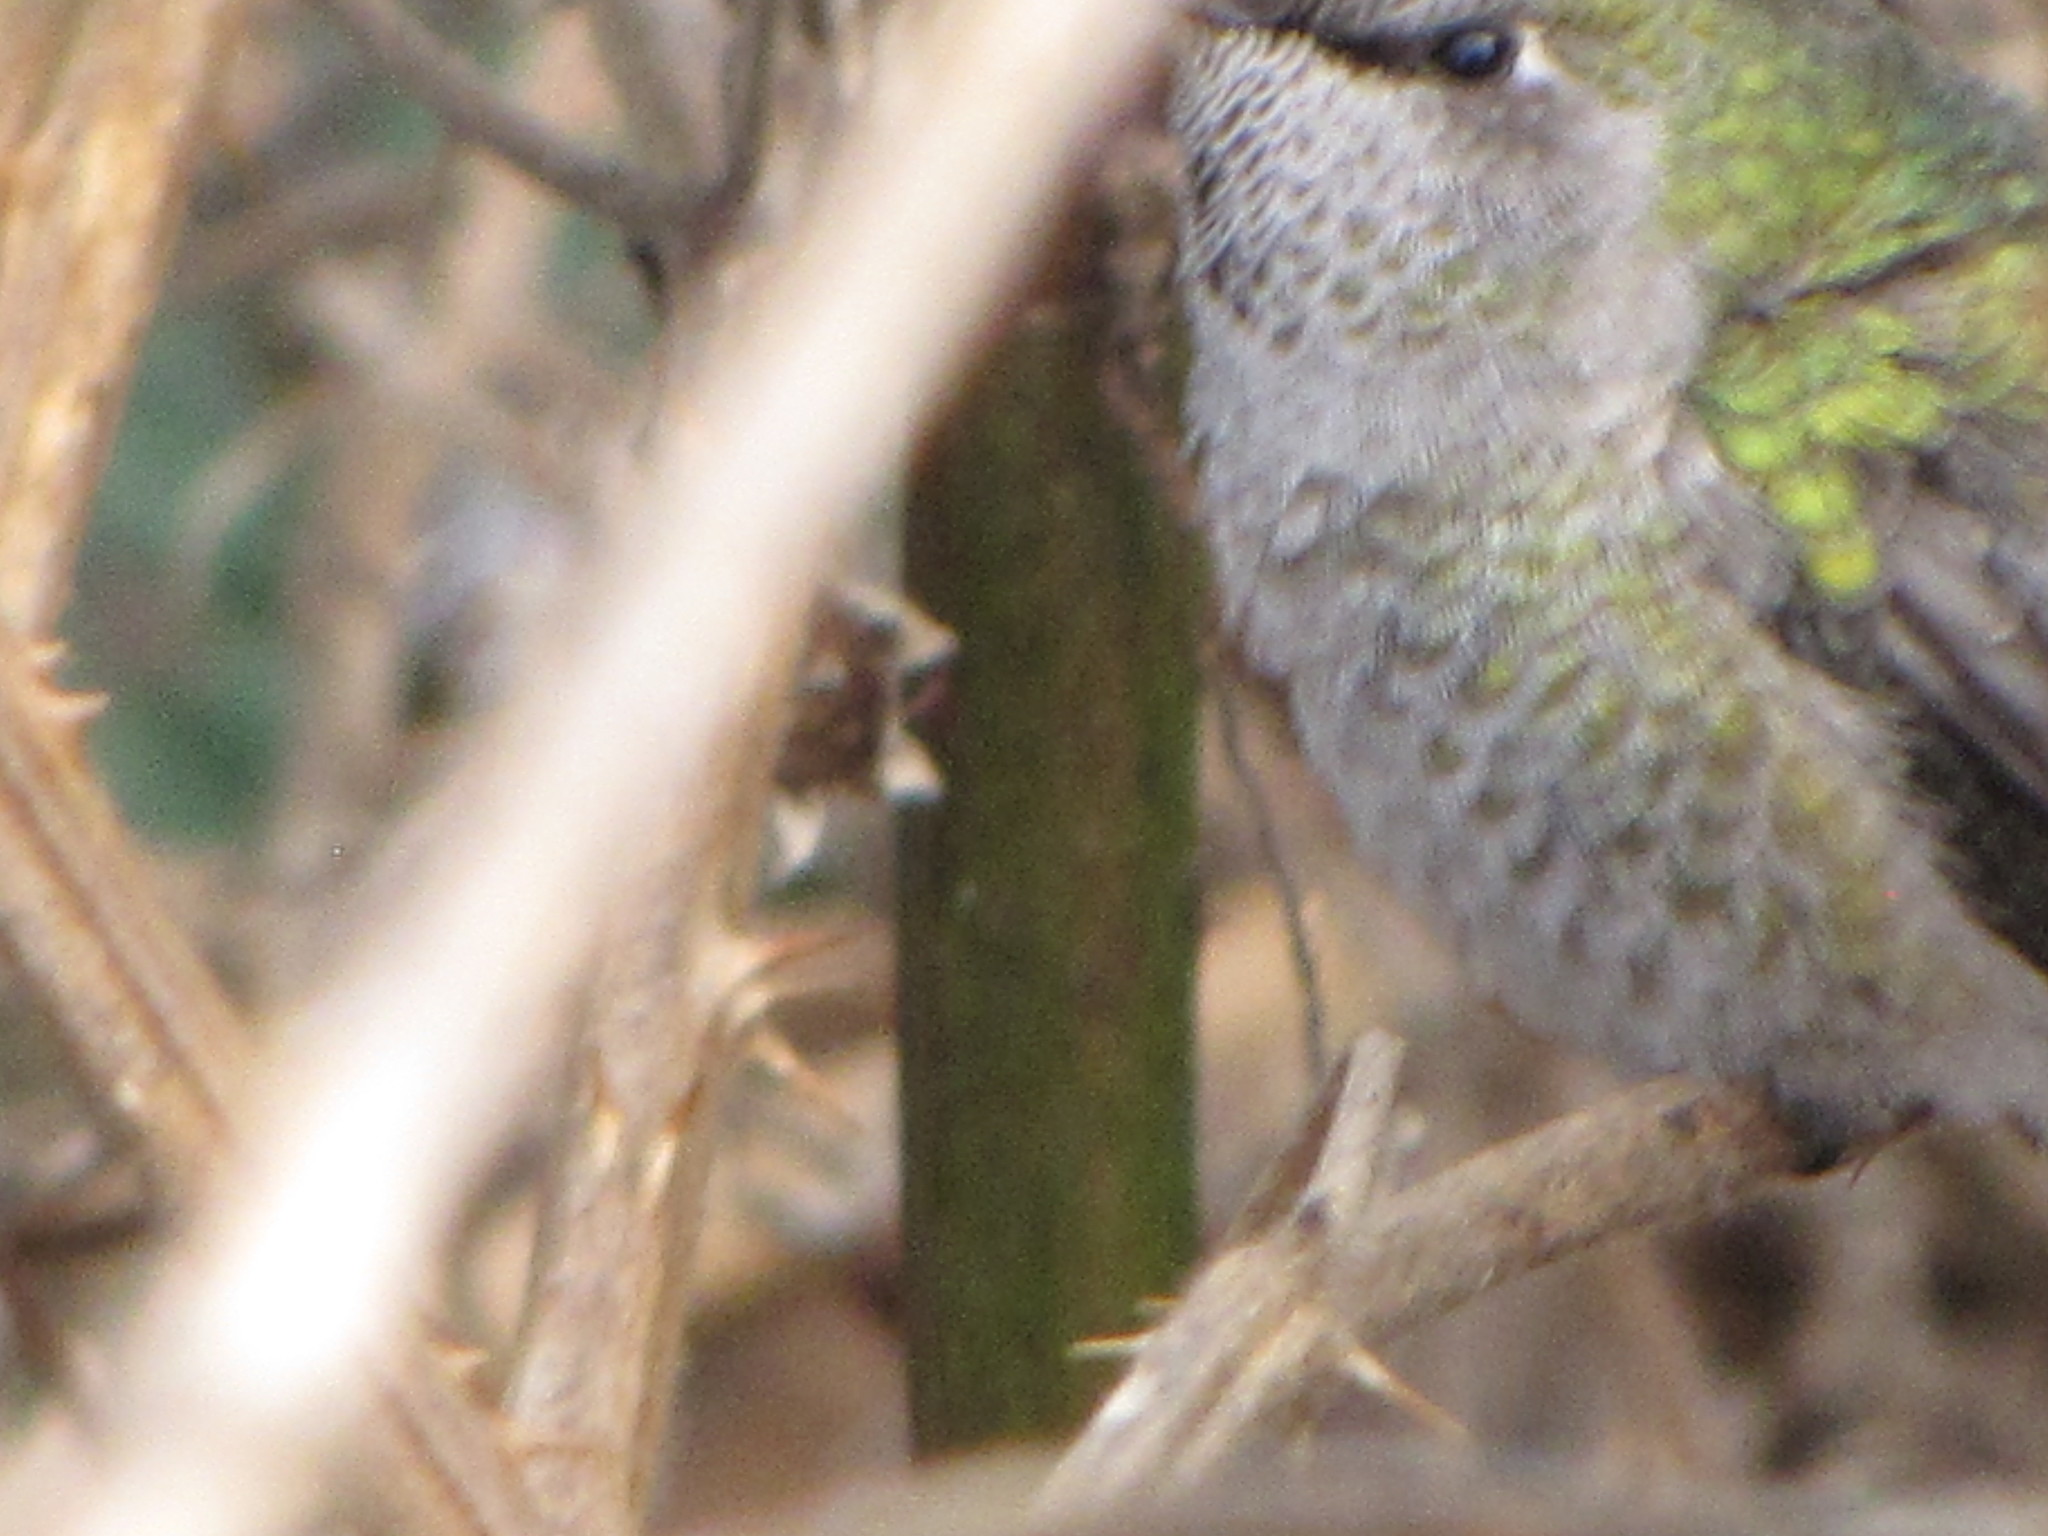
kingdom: Animalia
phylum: Chordata
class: Aves
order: Apodiformes
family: Trochilidae
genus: Calypte
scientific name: Calypte anna
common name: Anna's hummingbird
